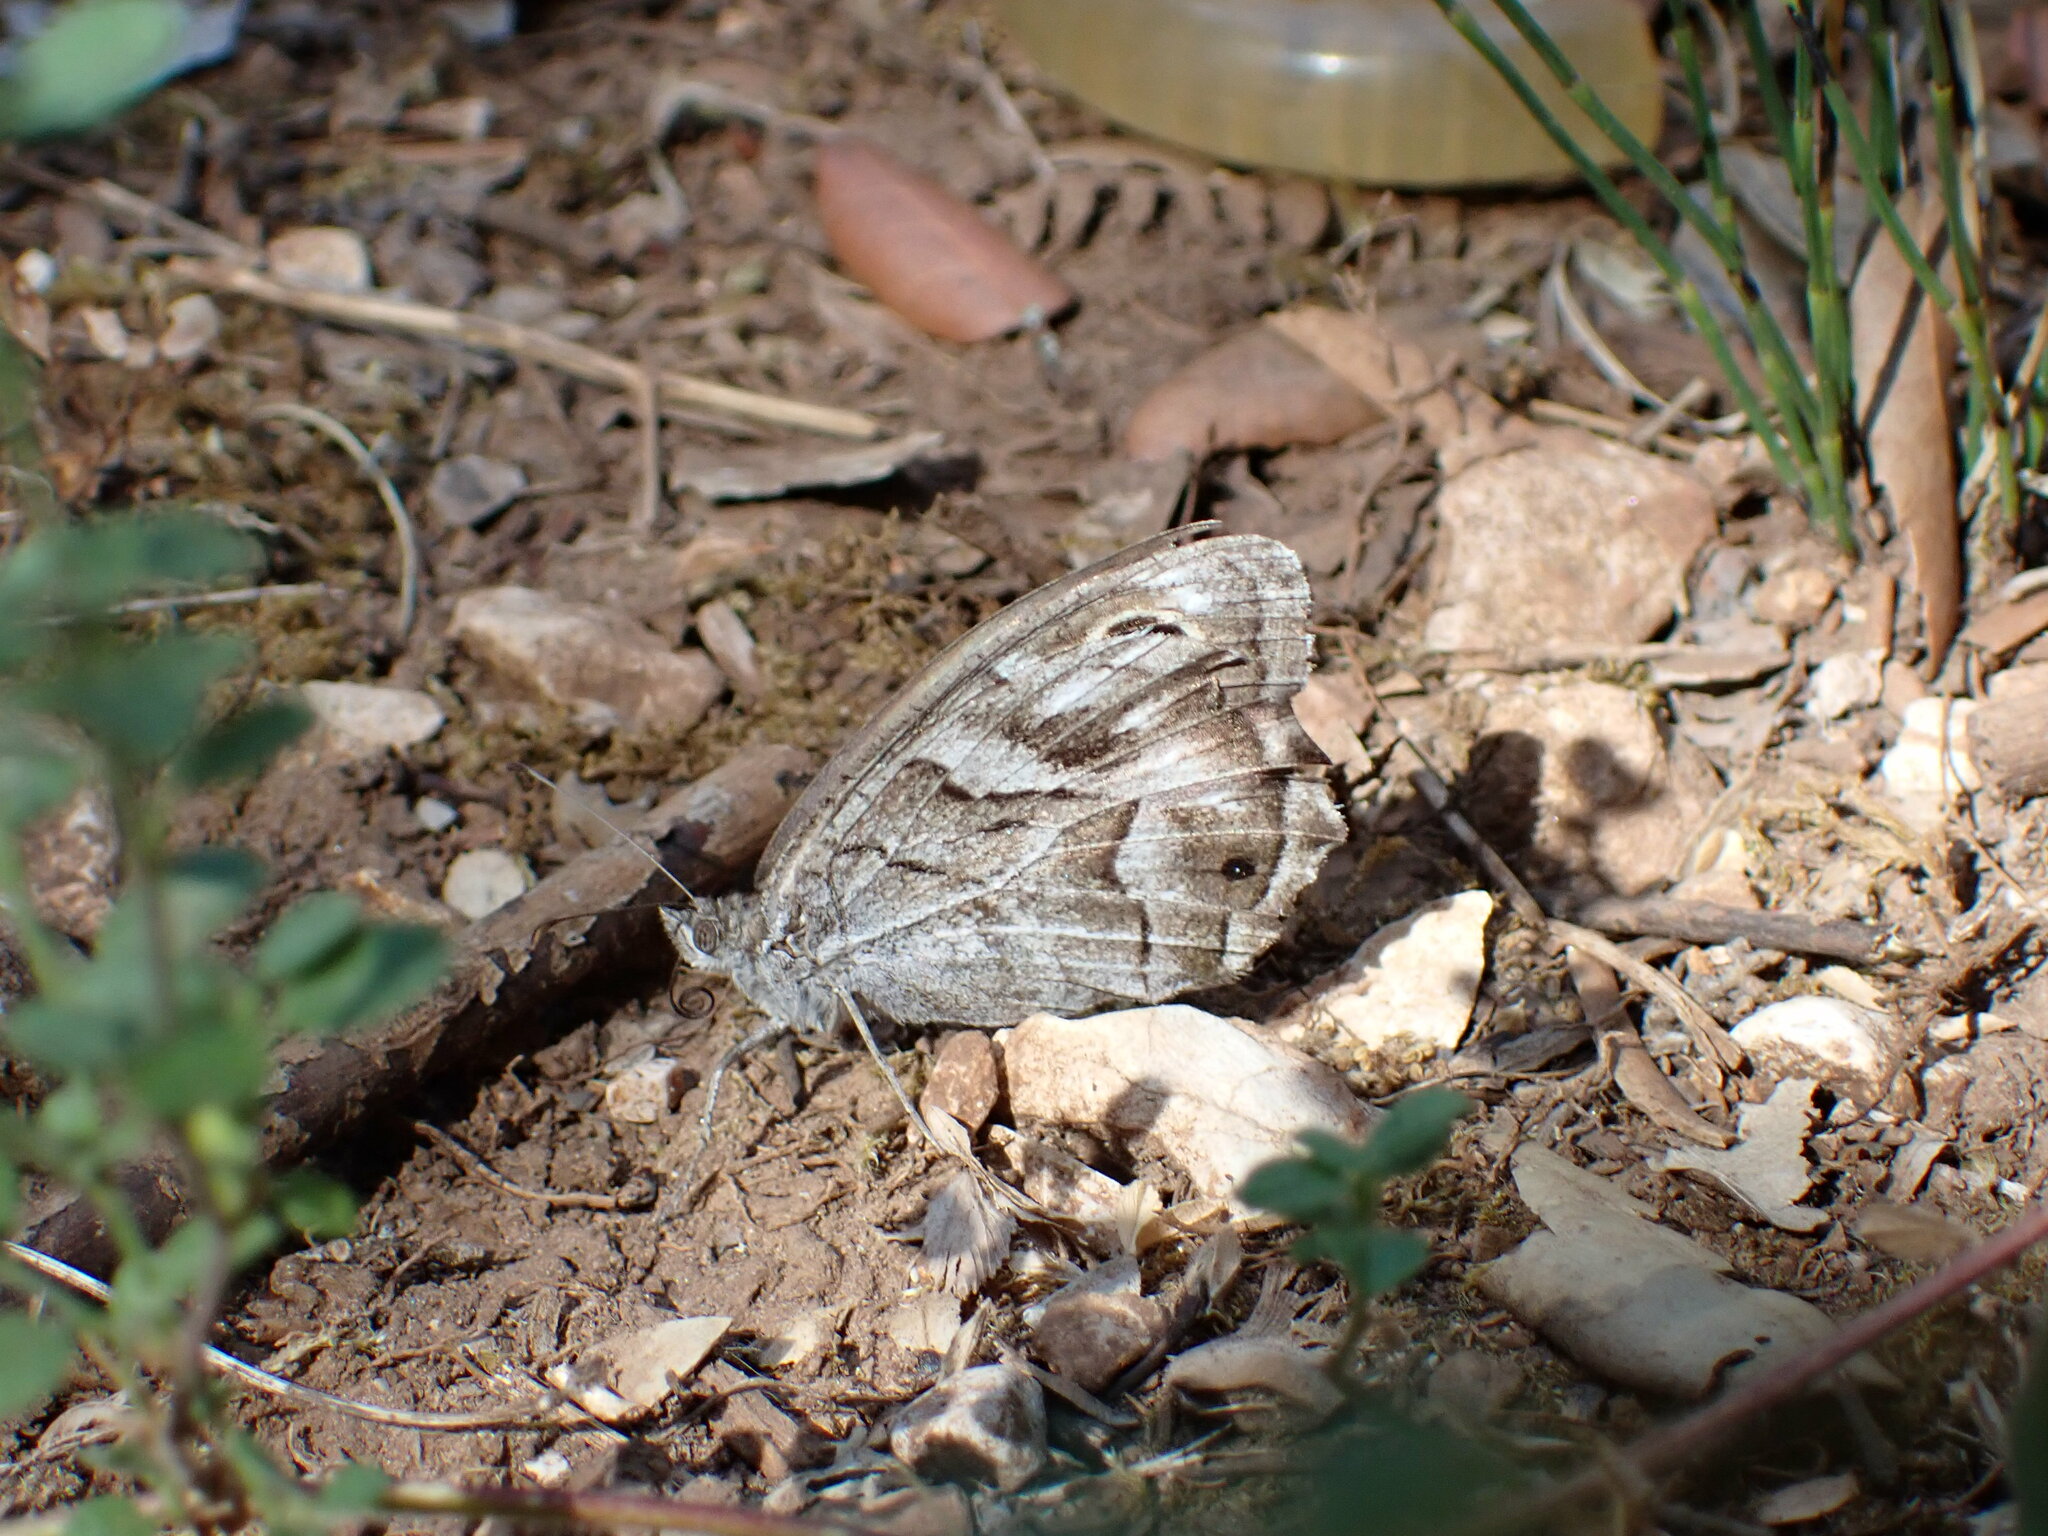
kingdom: Animalia
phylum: Arthropoda
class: Insecta
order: Lepidoptera
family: Nymphalidae
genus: Hipparchia
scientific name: Hipparchia fidia
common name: Striped grayling
